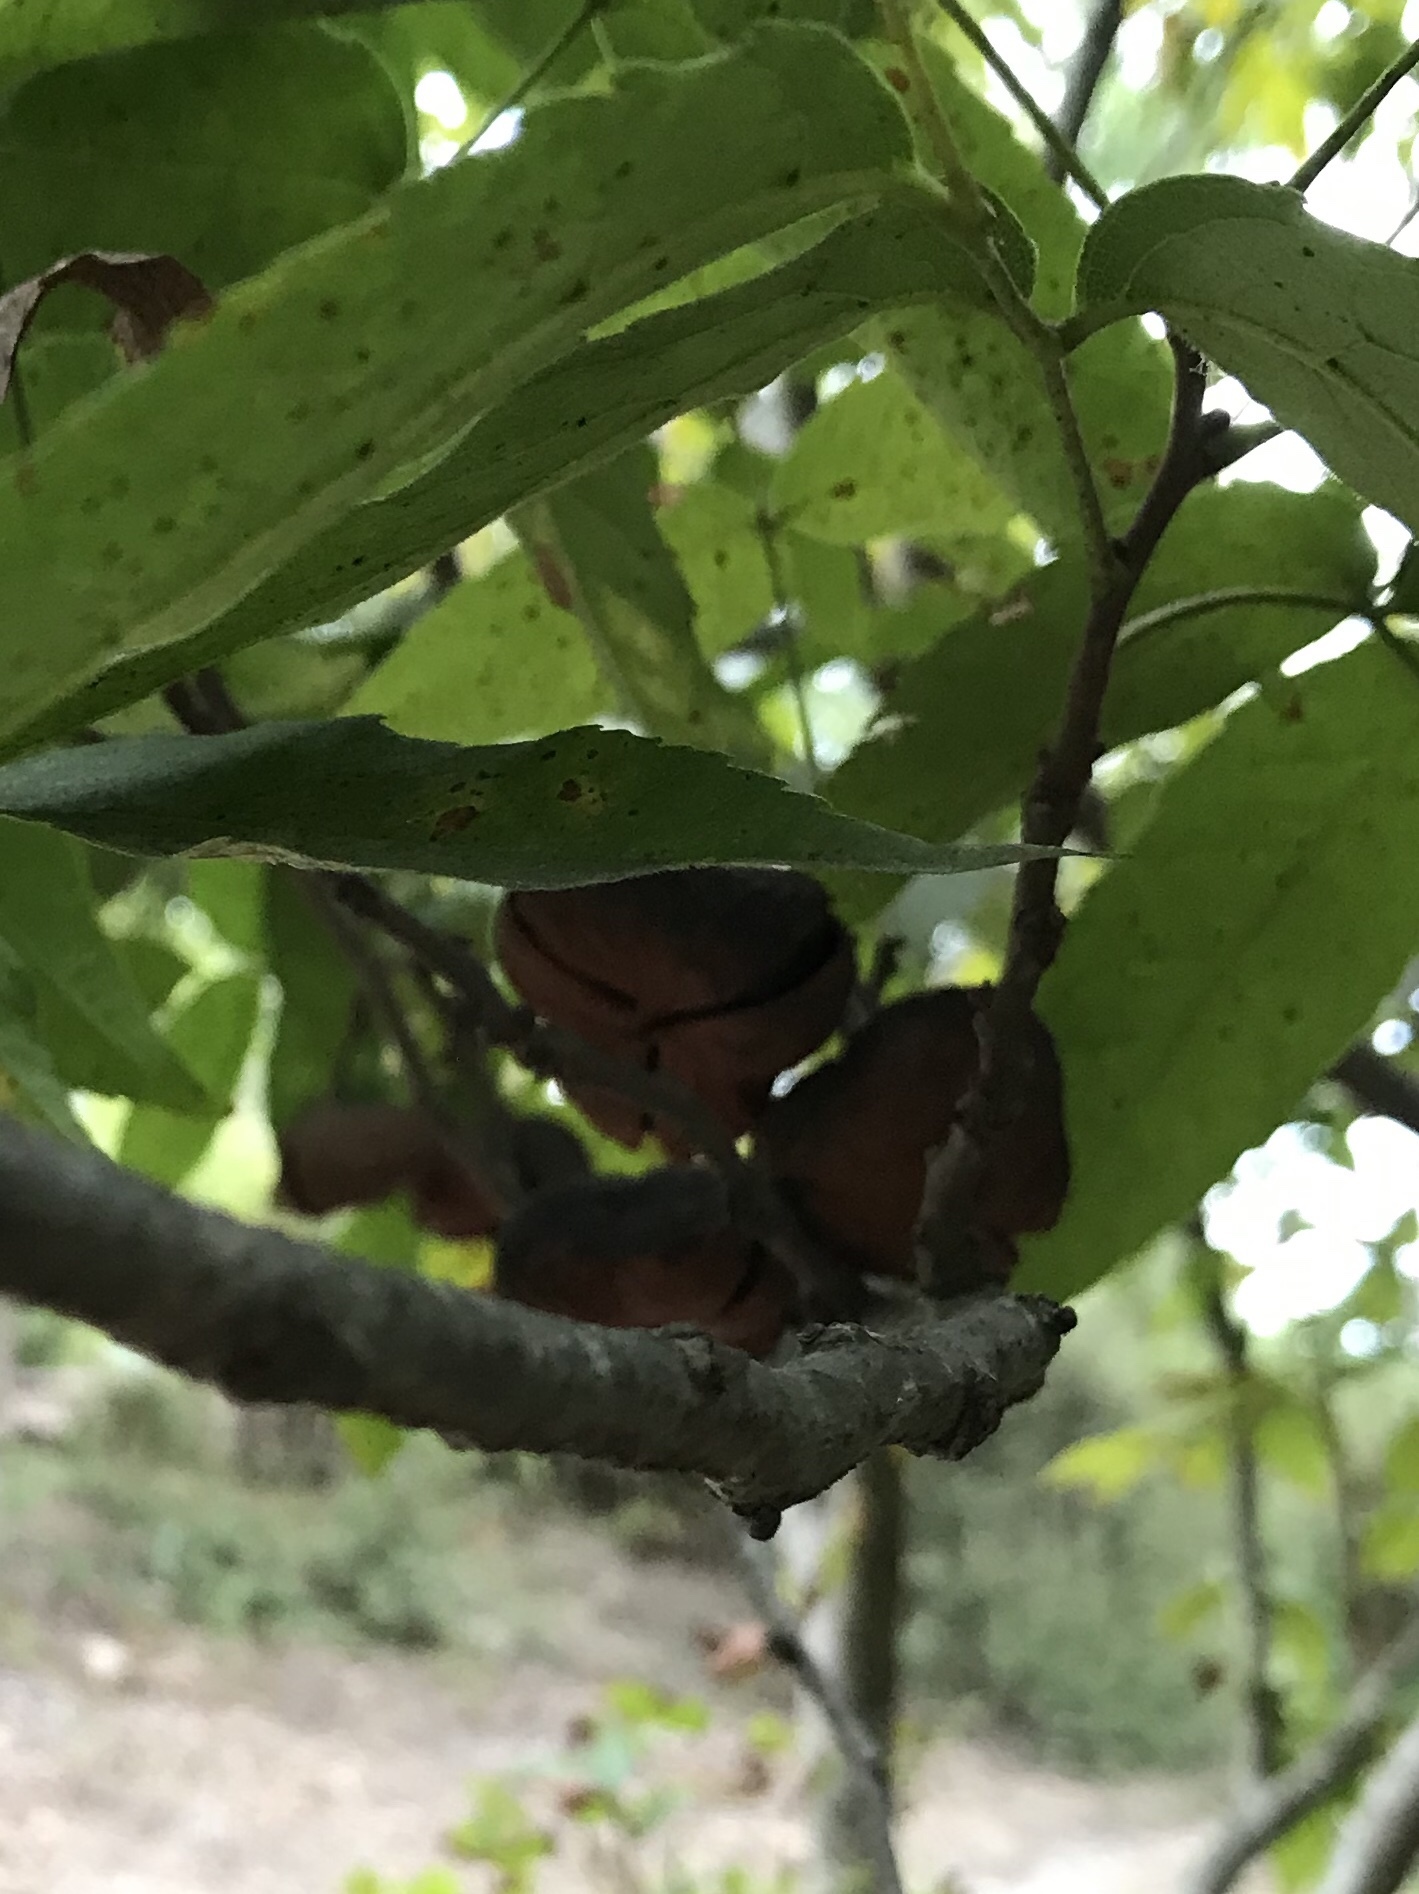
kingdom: Plantae
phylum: Tracheophyta
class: Magnoliopsida
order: Sapindales
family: Sapindaceae
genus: Ungnadia
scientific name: Ungnadia speciosa
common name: Texas-buckeye
